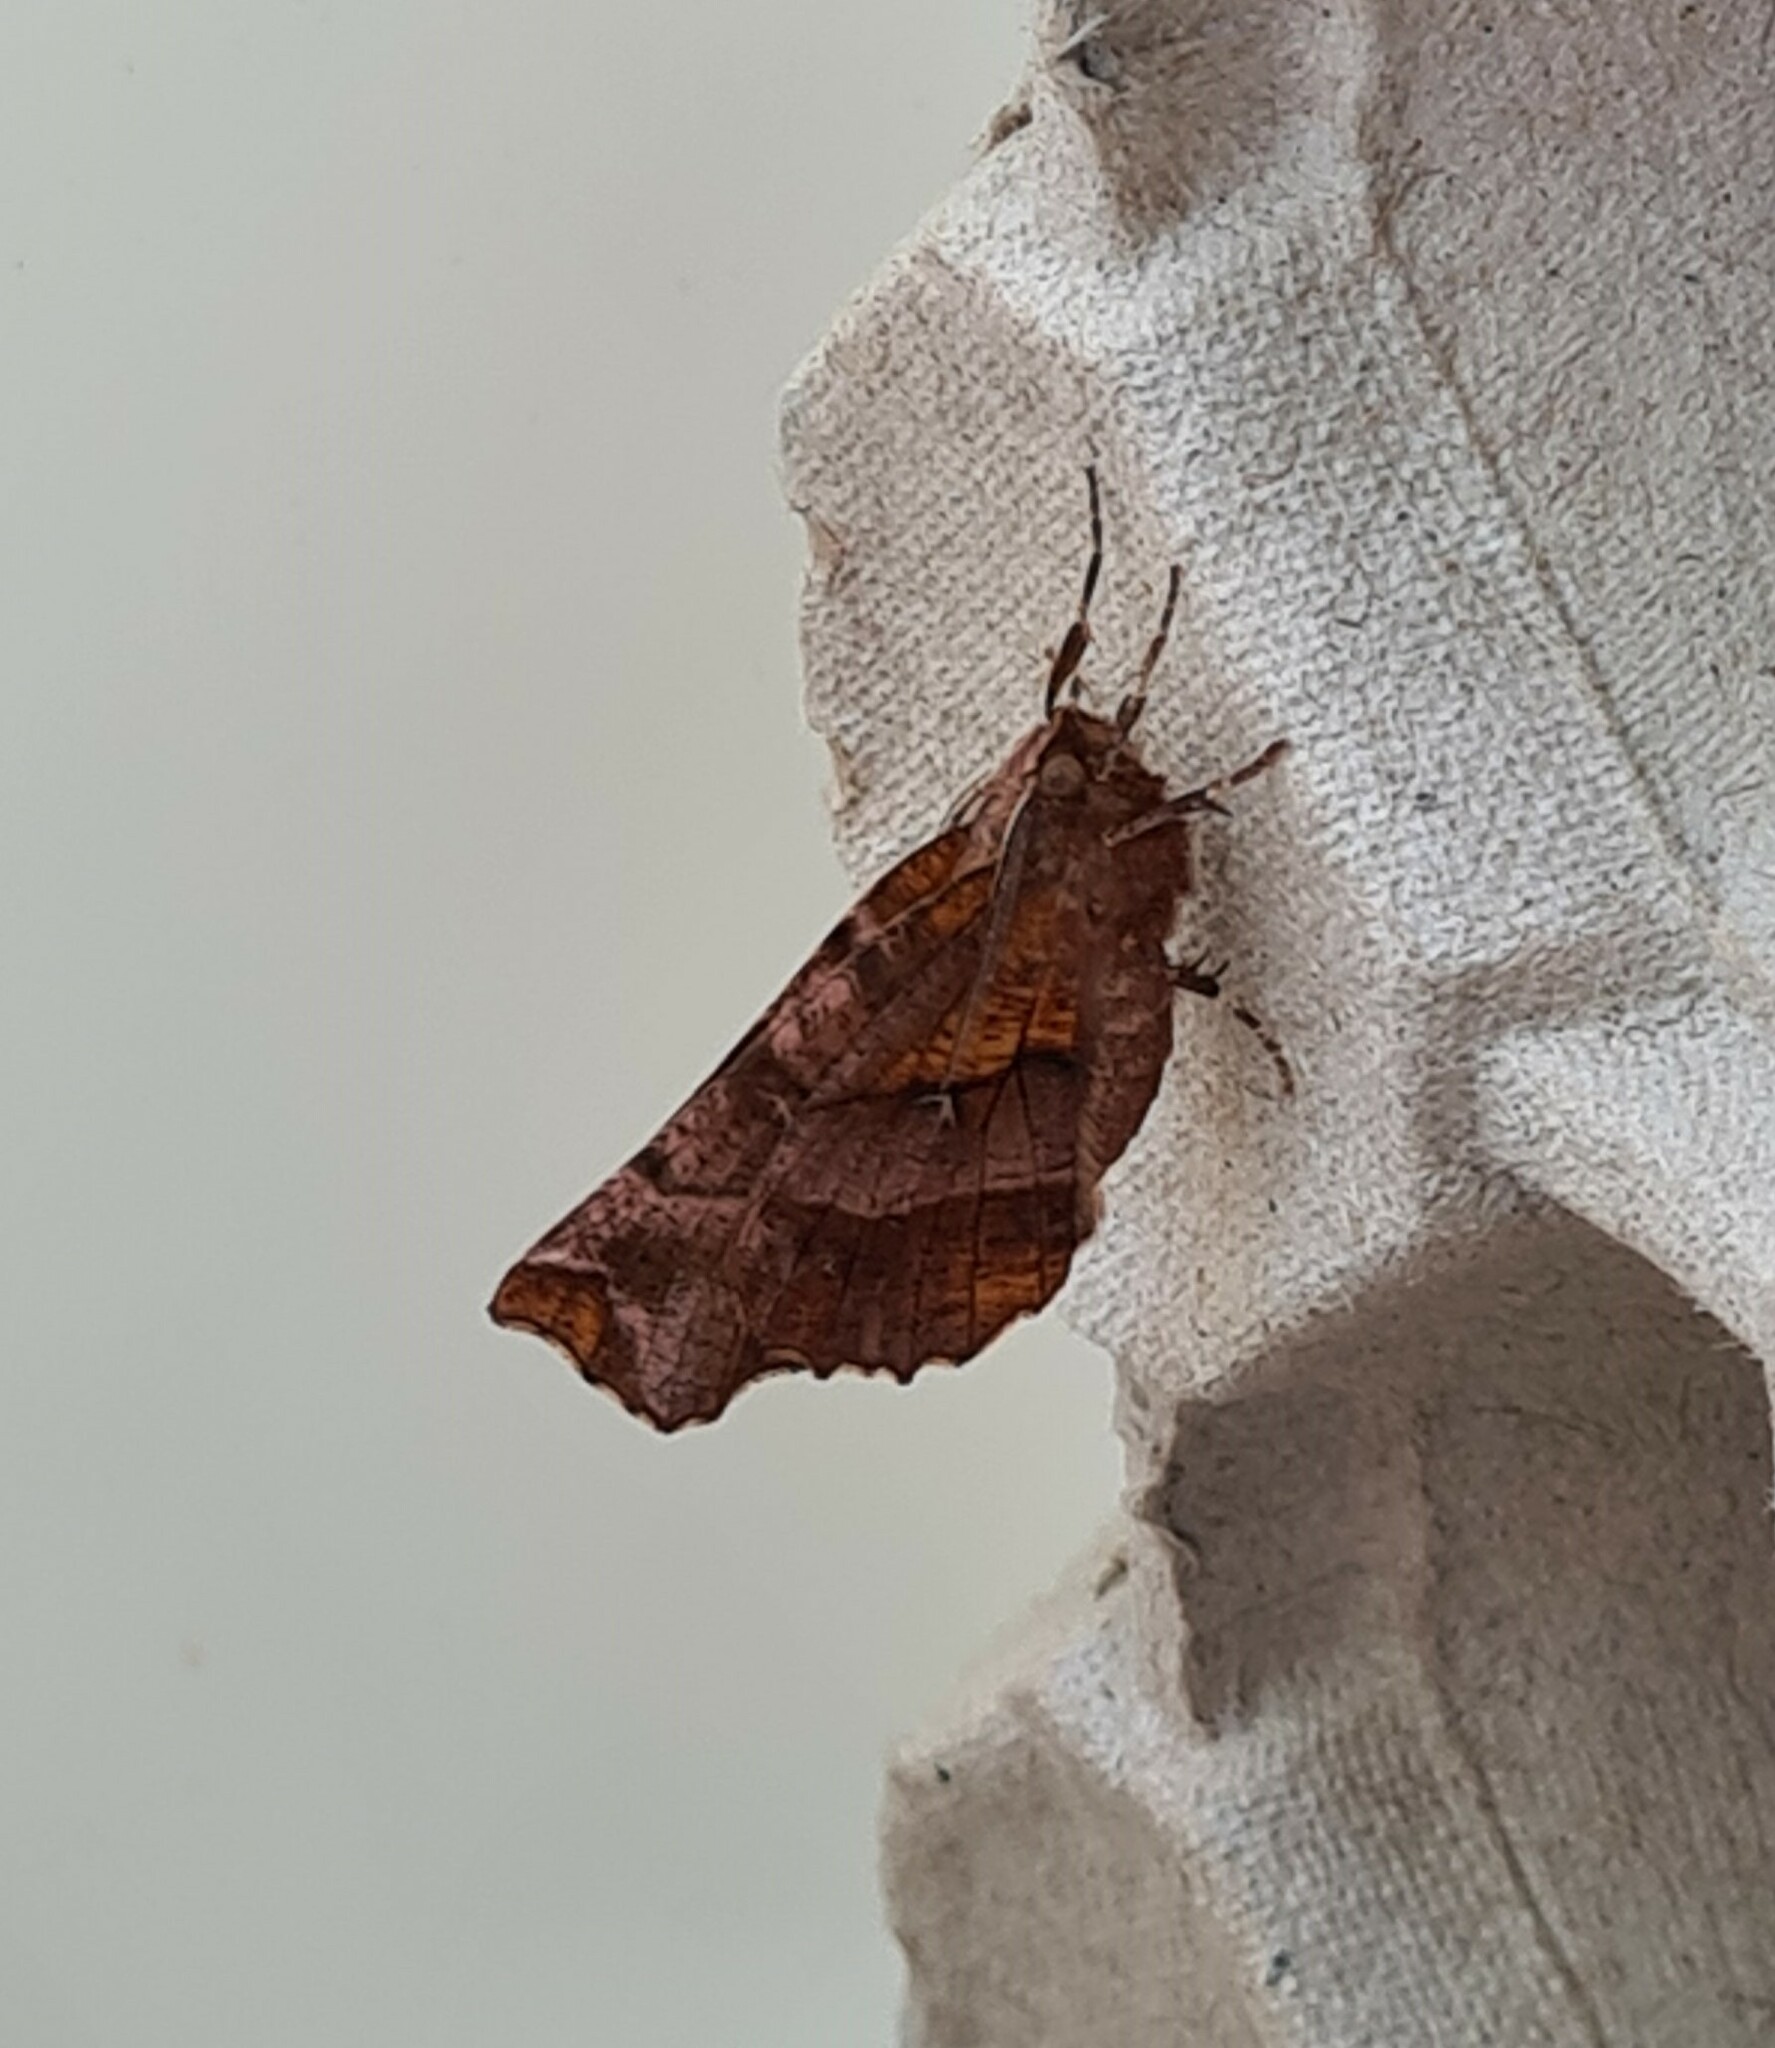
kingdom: Animalia
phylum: Arthropoda
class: Insecta
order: Lepidoptera
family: Geometridae
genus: Selenia
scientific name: Selenia dentaria
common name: Early thorn
